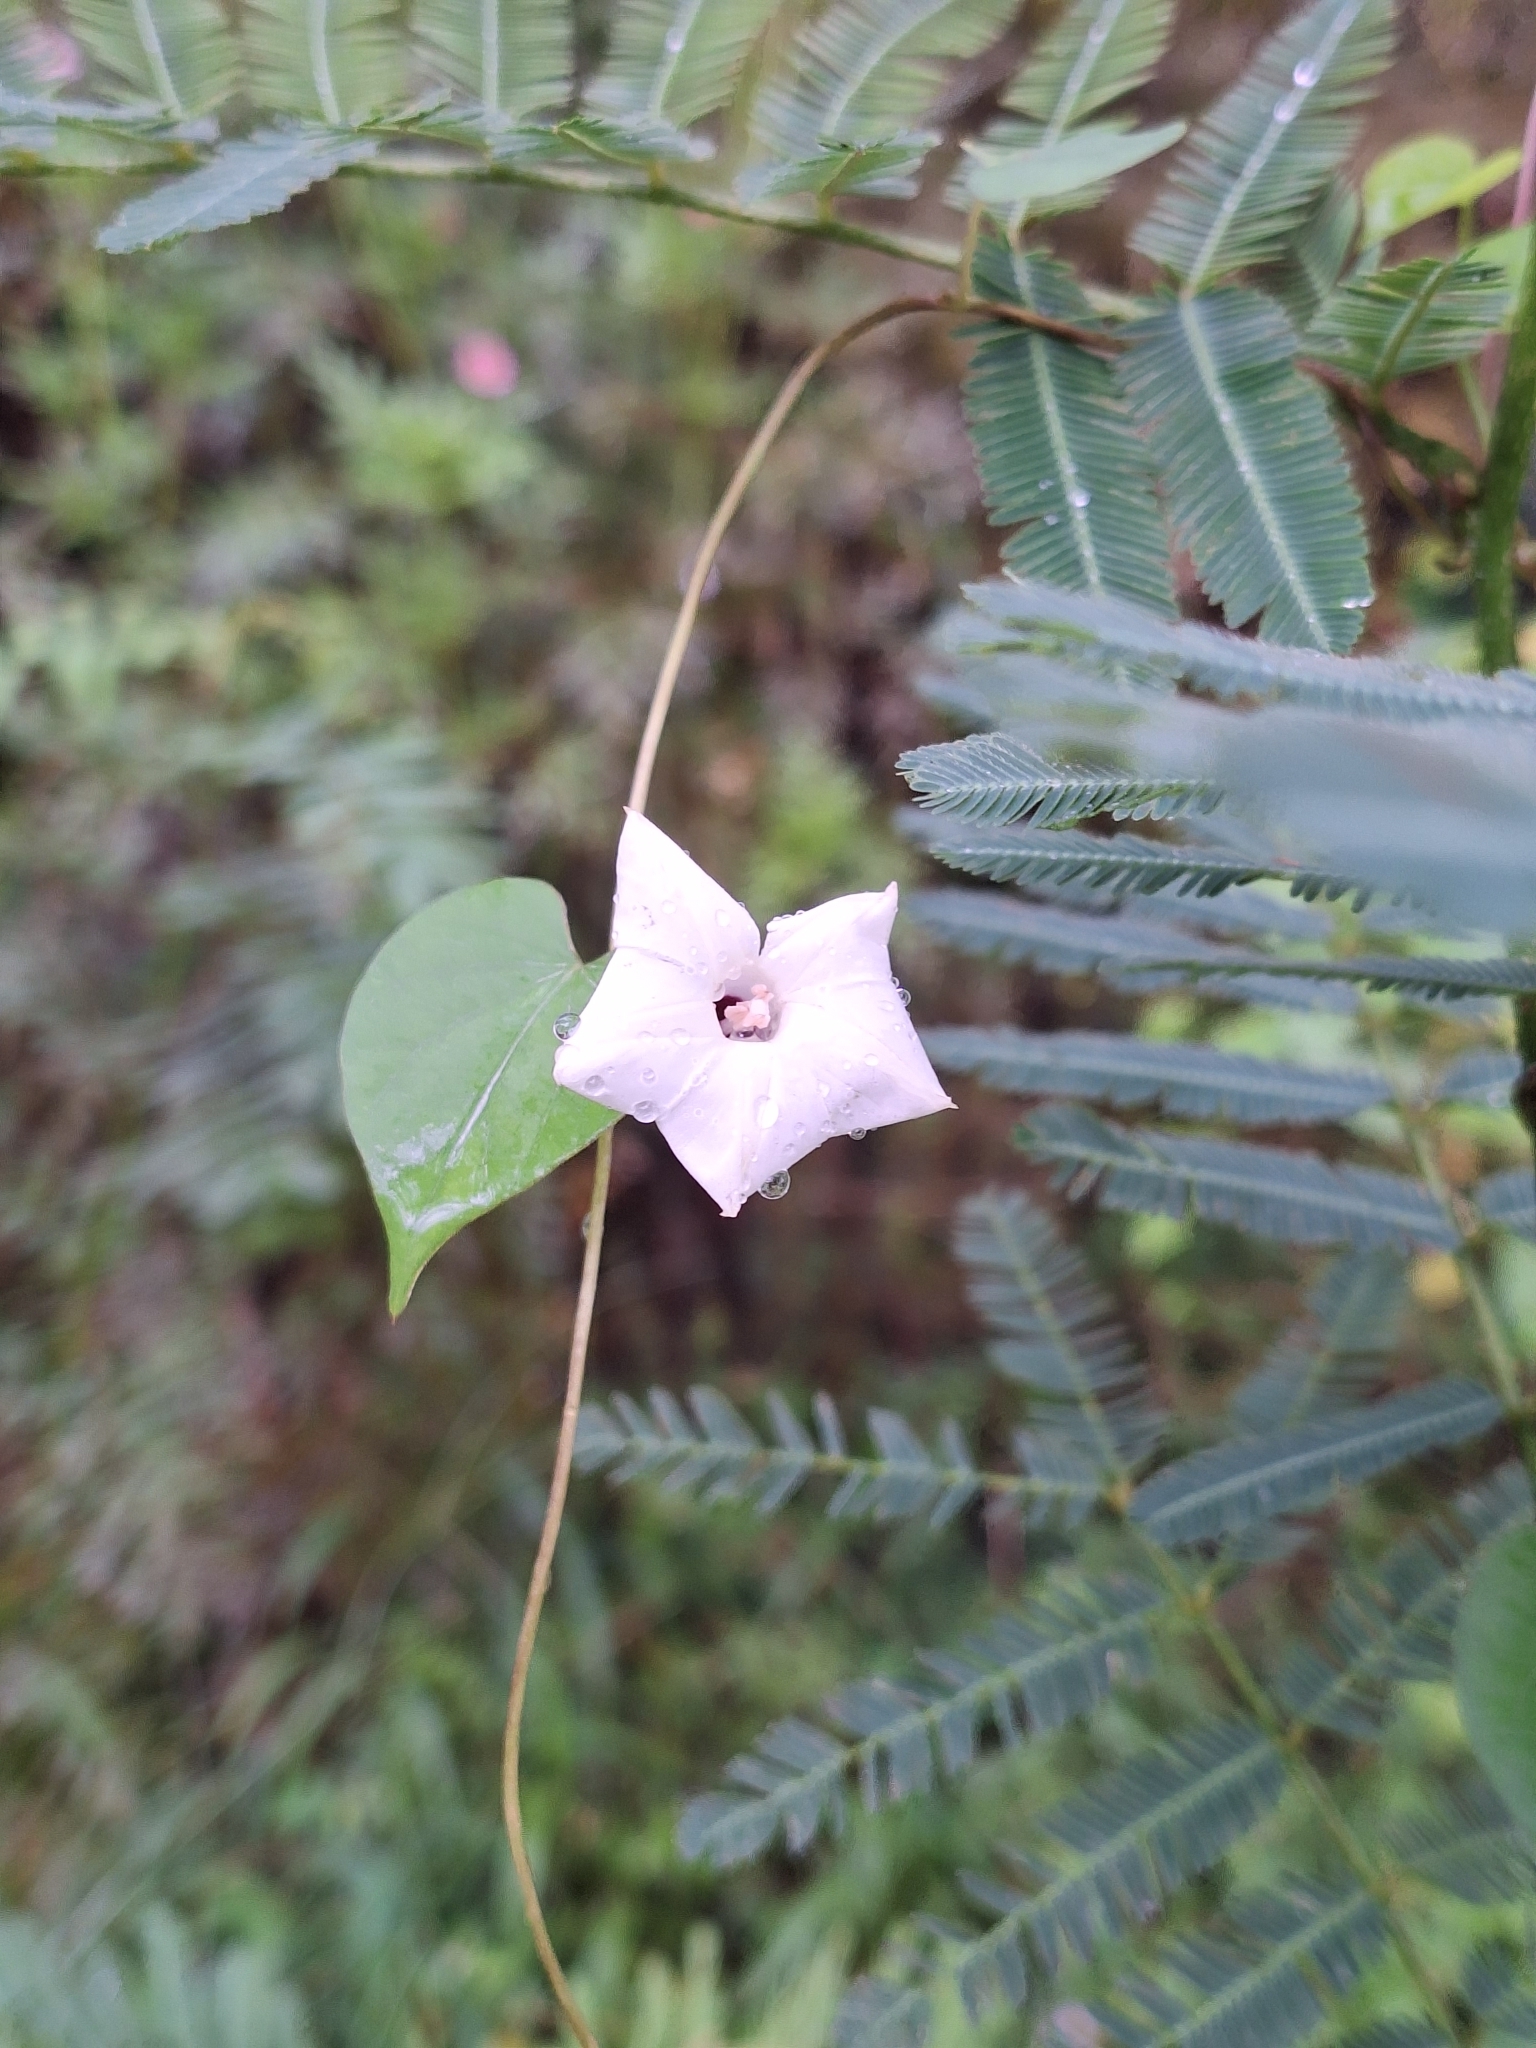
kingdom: Plantae
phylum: Tracheophyta
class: Magnoliopsida
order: Solanales
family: Convolvulaceae
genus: Ipomoea
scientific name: Ipomoea triloba
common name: Little-bell
